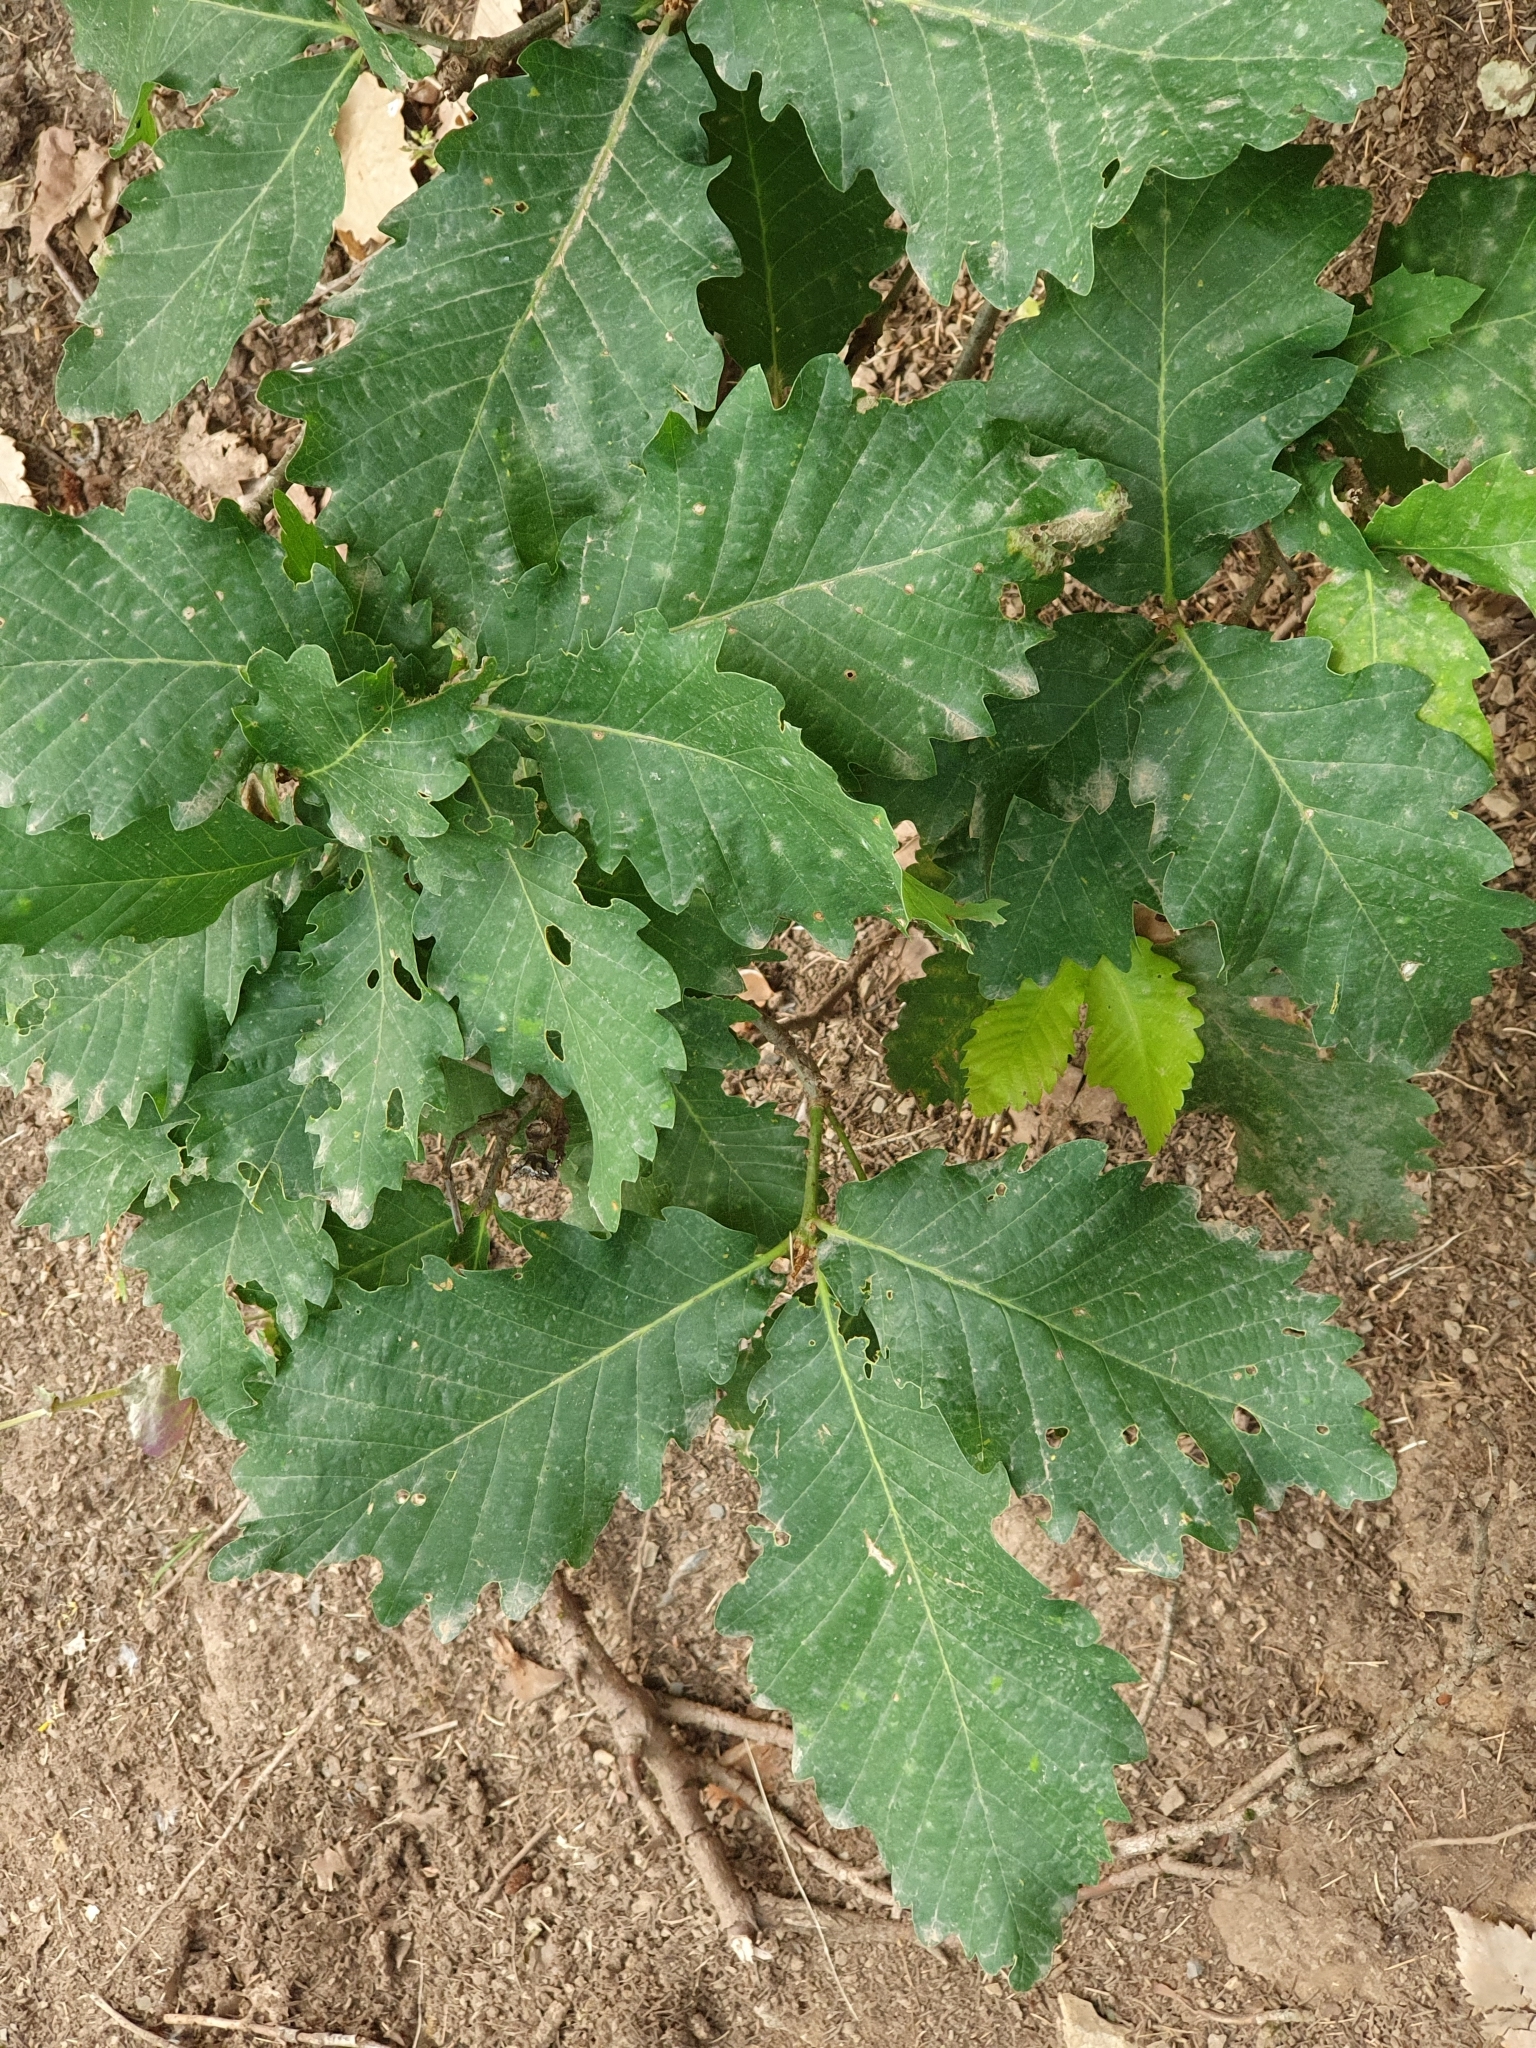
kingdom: Plantae
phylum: Tracheophyta
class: Magnoliopsida
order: Fagales
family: Fagaceae
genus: Quercus
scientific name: Quercus canariensis
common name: Algerian oak
